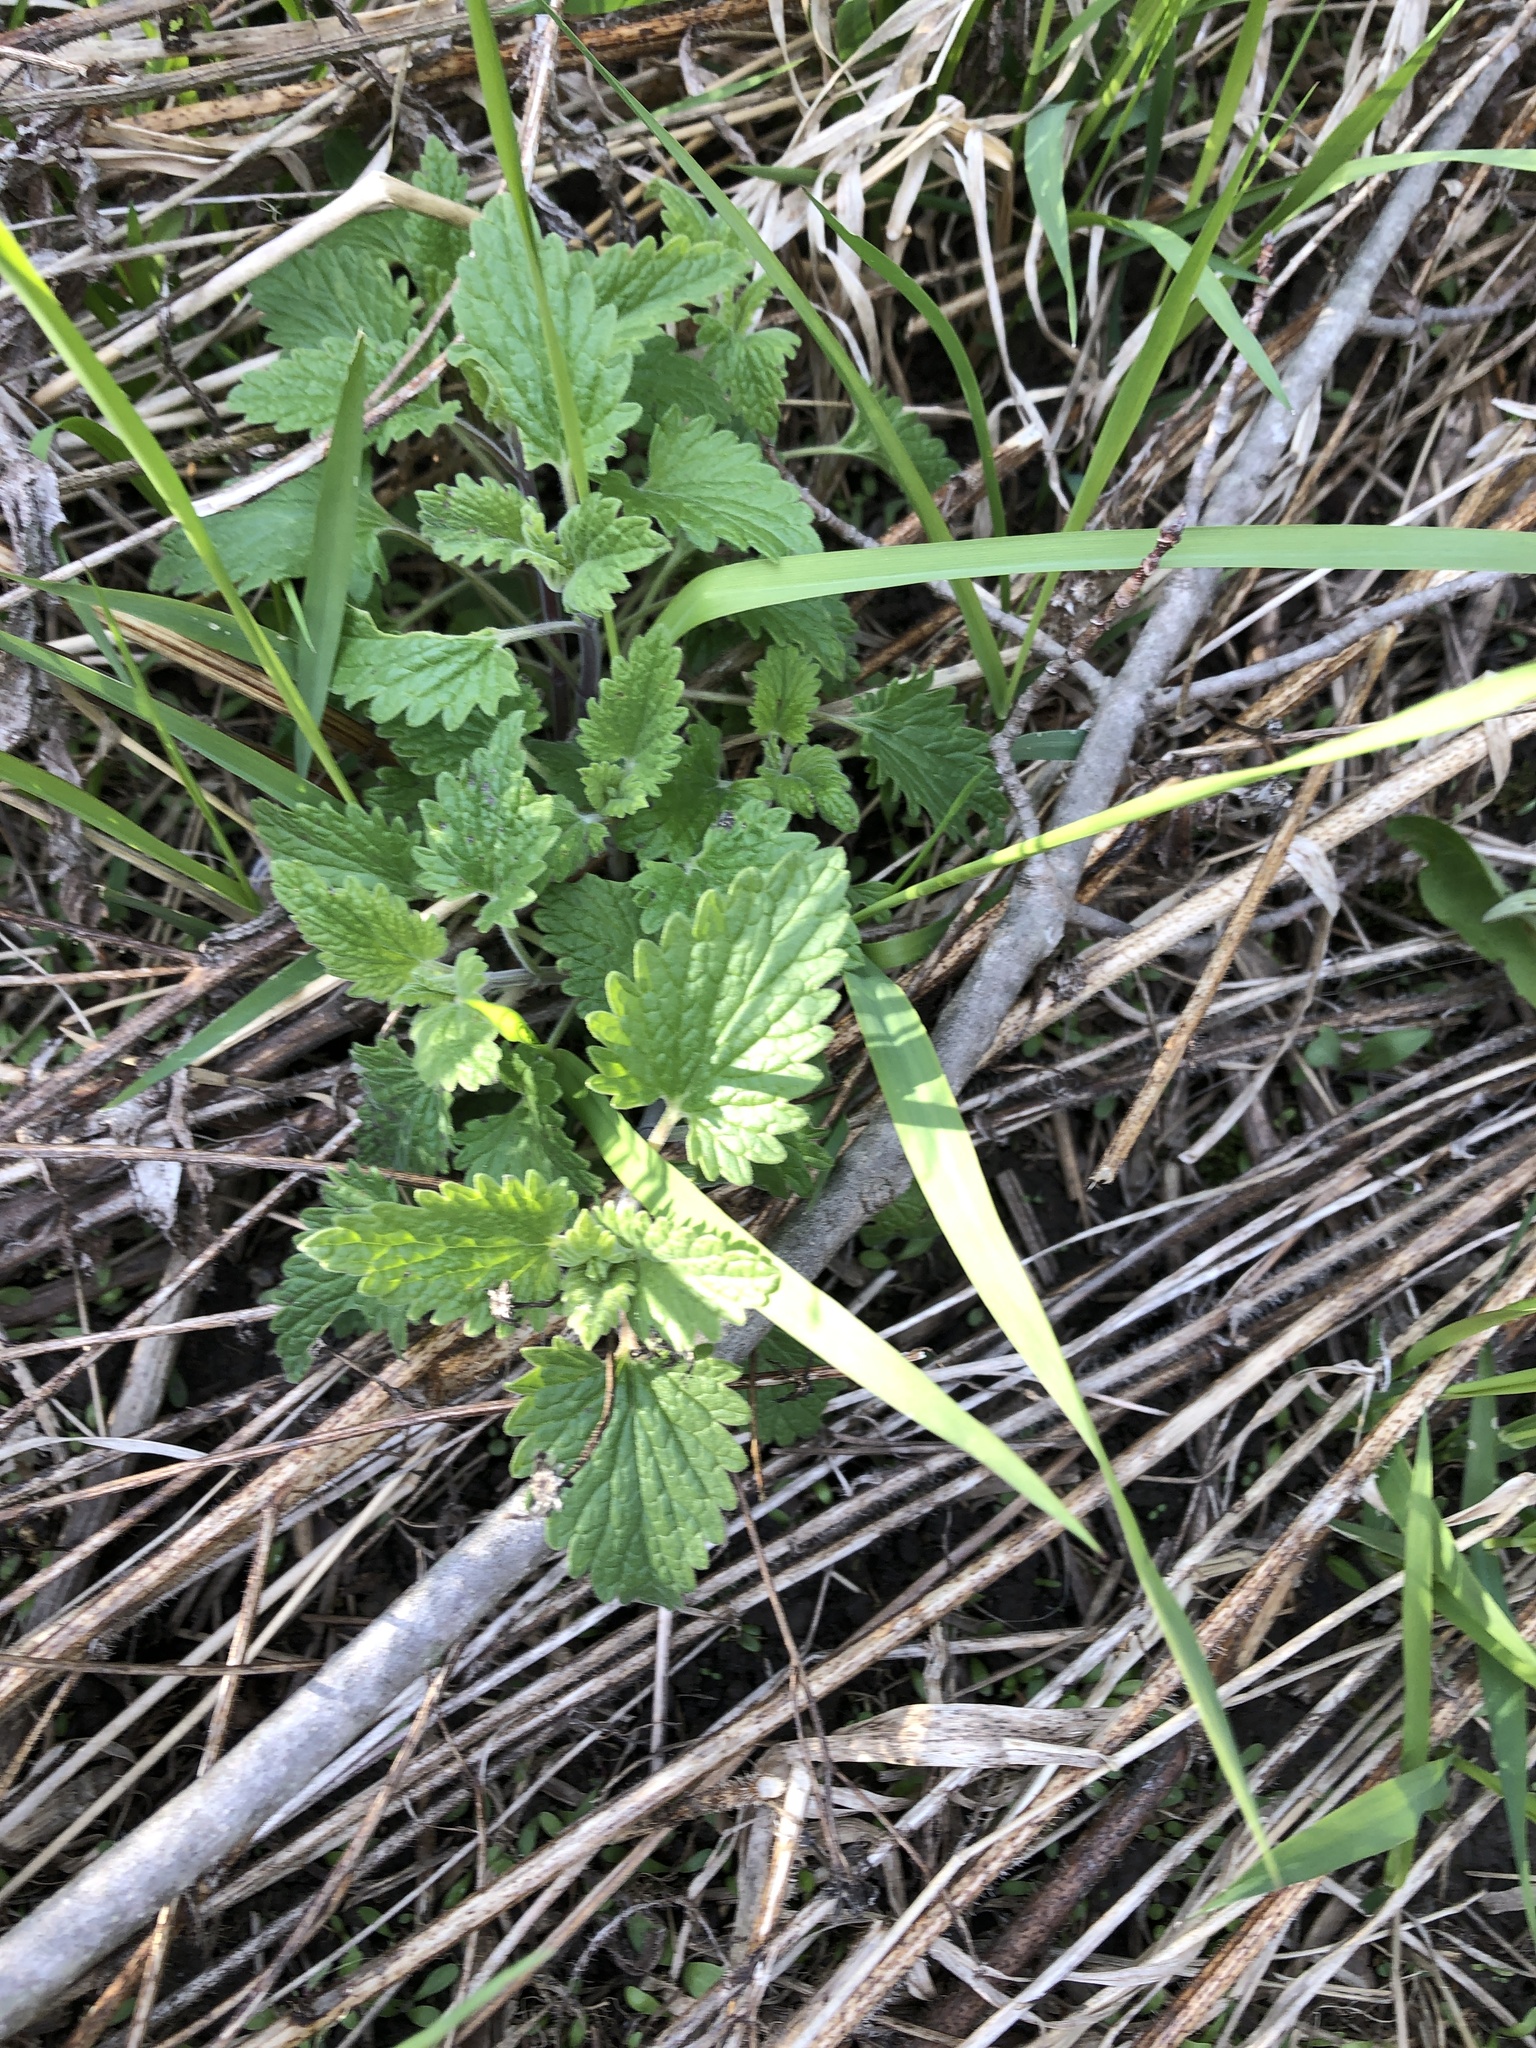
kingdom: Plantae
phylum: Tracheophyta
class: Magnoliopsida
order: Lamiales
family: Lamiaceae
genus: Nepeta
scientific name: Nepeta cataria
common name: Catnip
